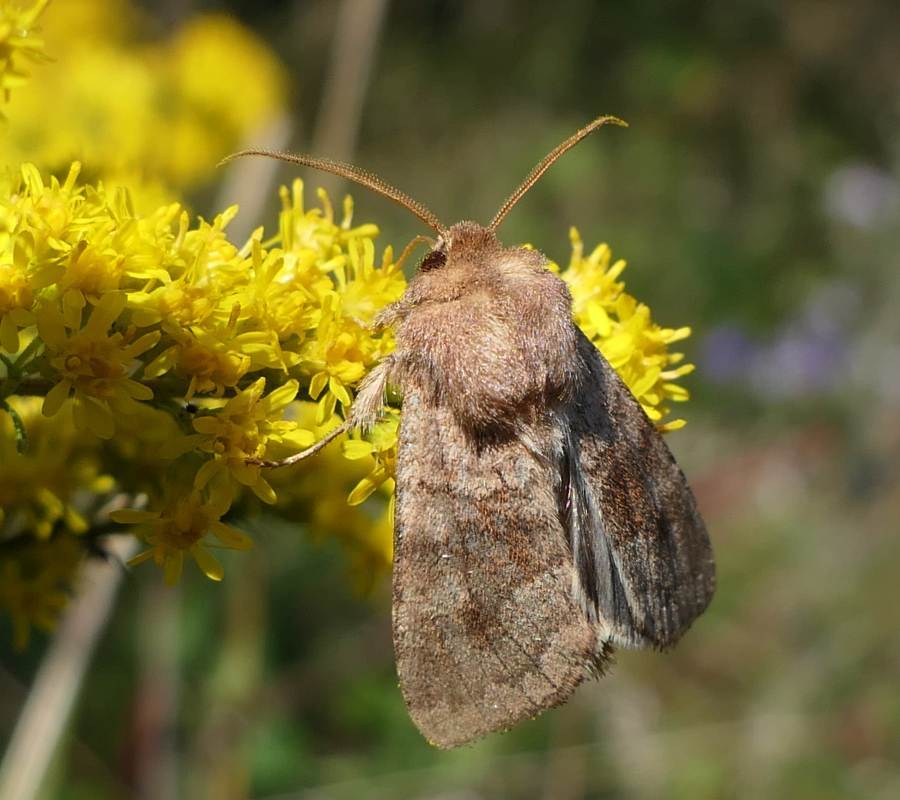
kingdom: Animalia
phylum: Arthropoda
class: Insecta
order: Lepidoptera
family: Noctuidae
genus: Nephelodes
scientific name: Nephelodes minians
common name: Bronzed cutworm
